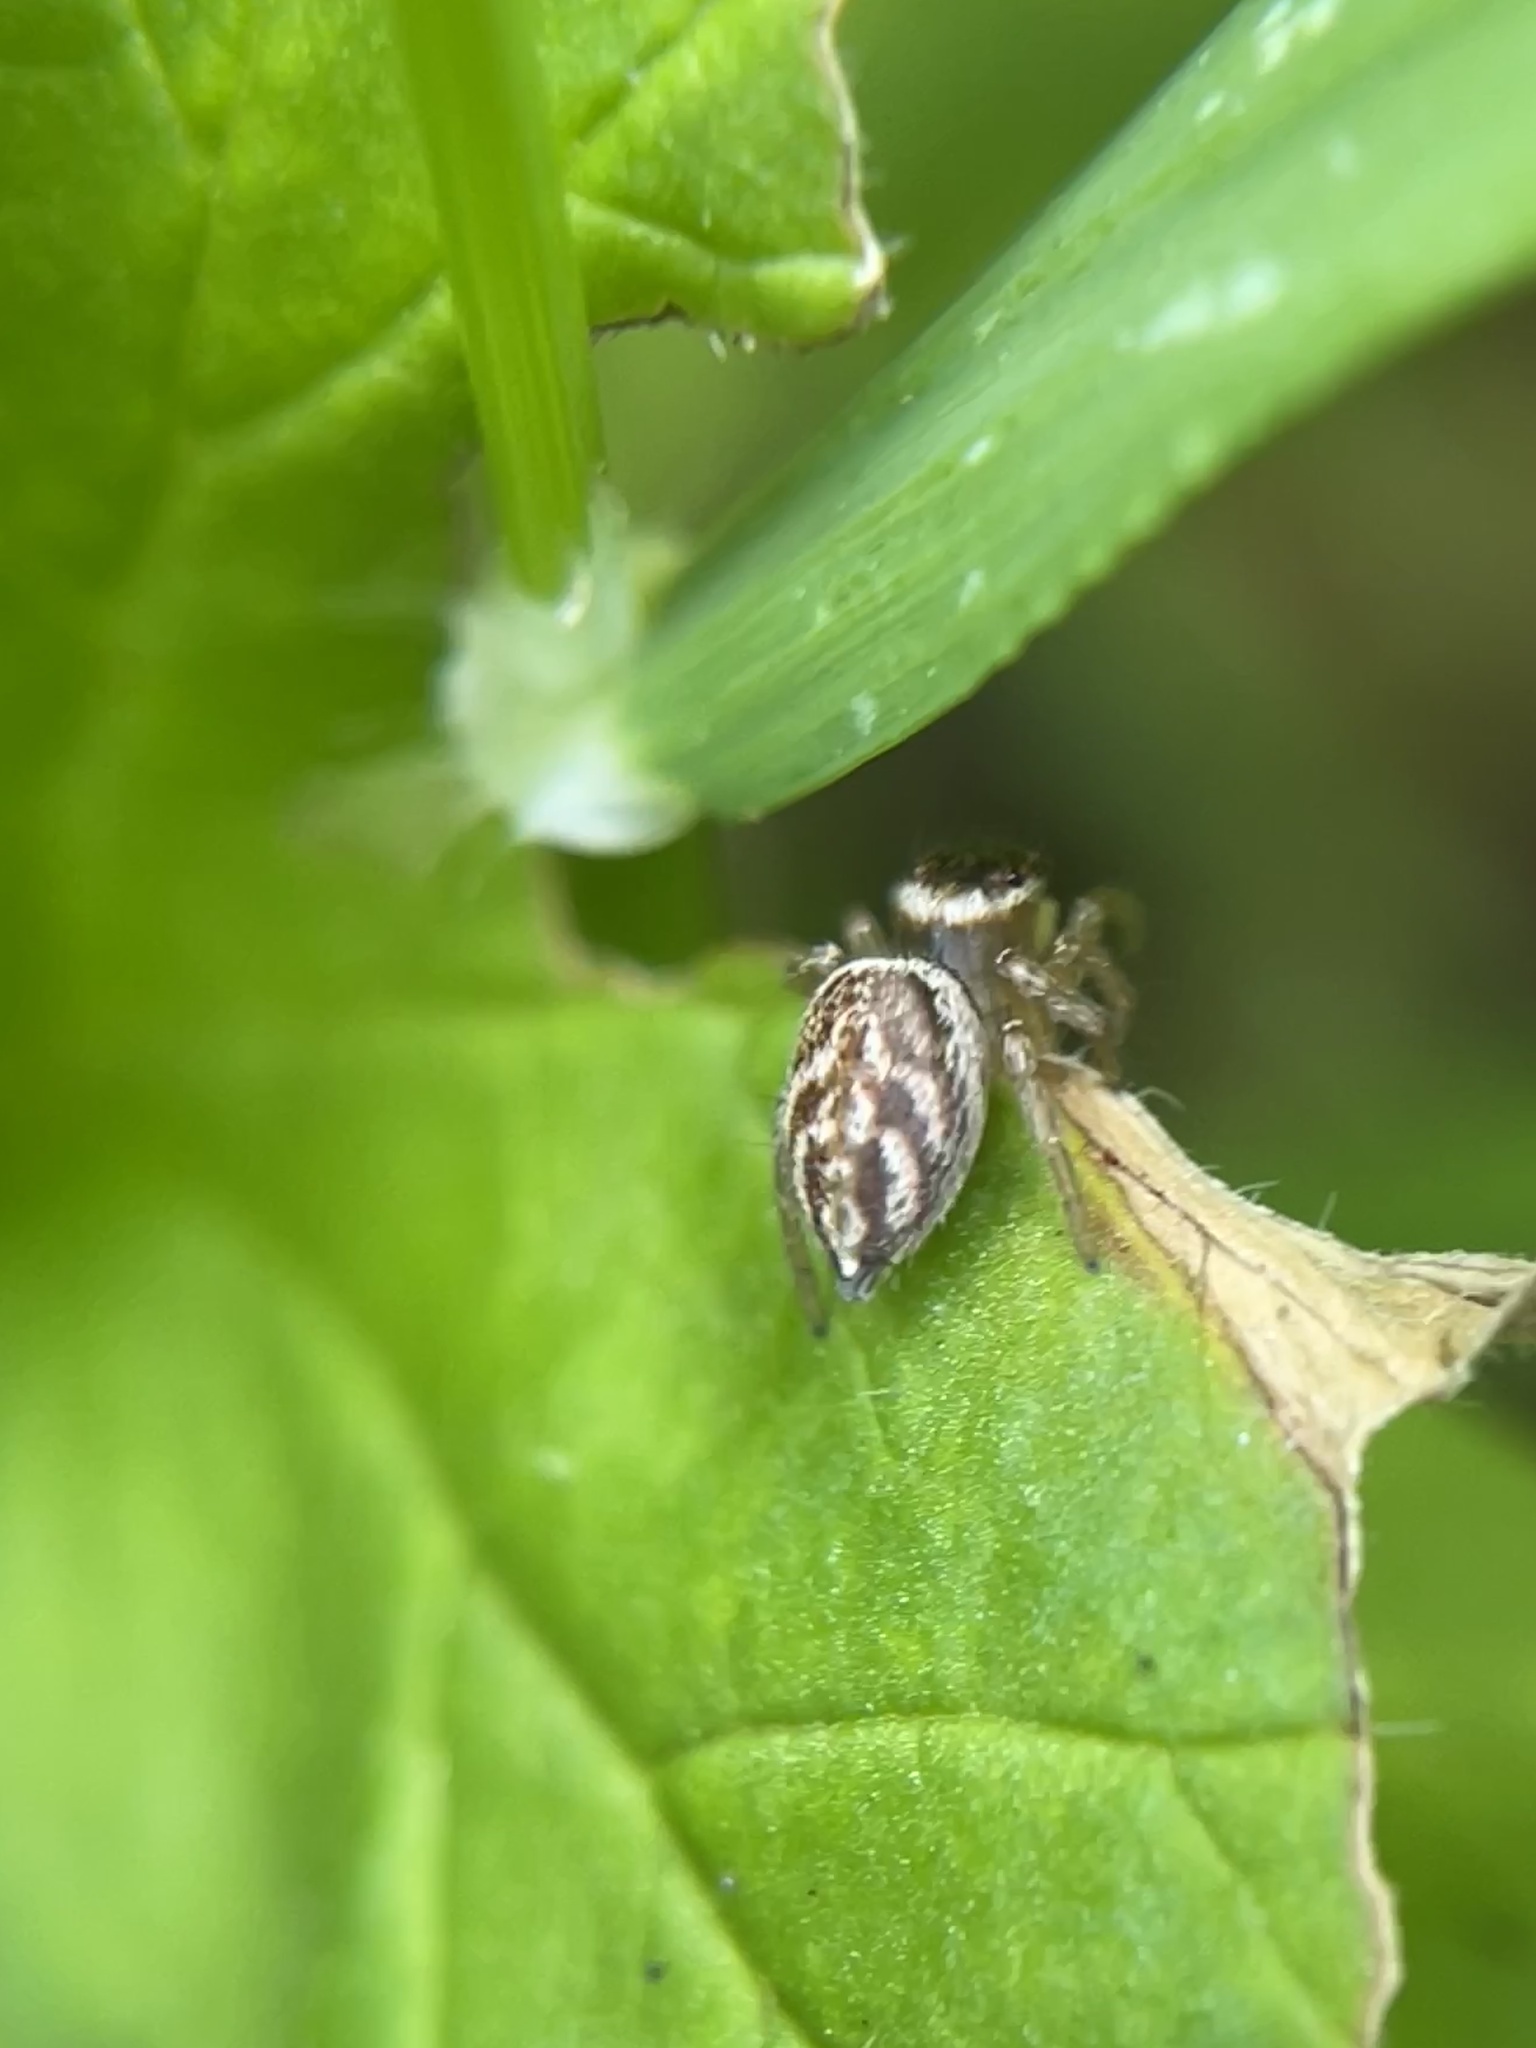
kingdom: Animalia
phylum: Arthropoda
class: Arachnida
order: Araneae
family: Salticidae
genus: Maratus
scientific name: Maratus griseus
